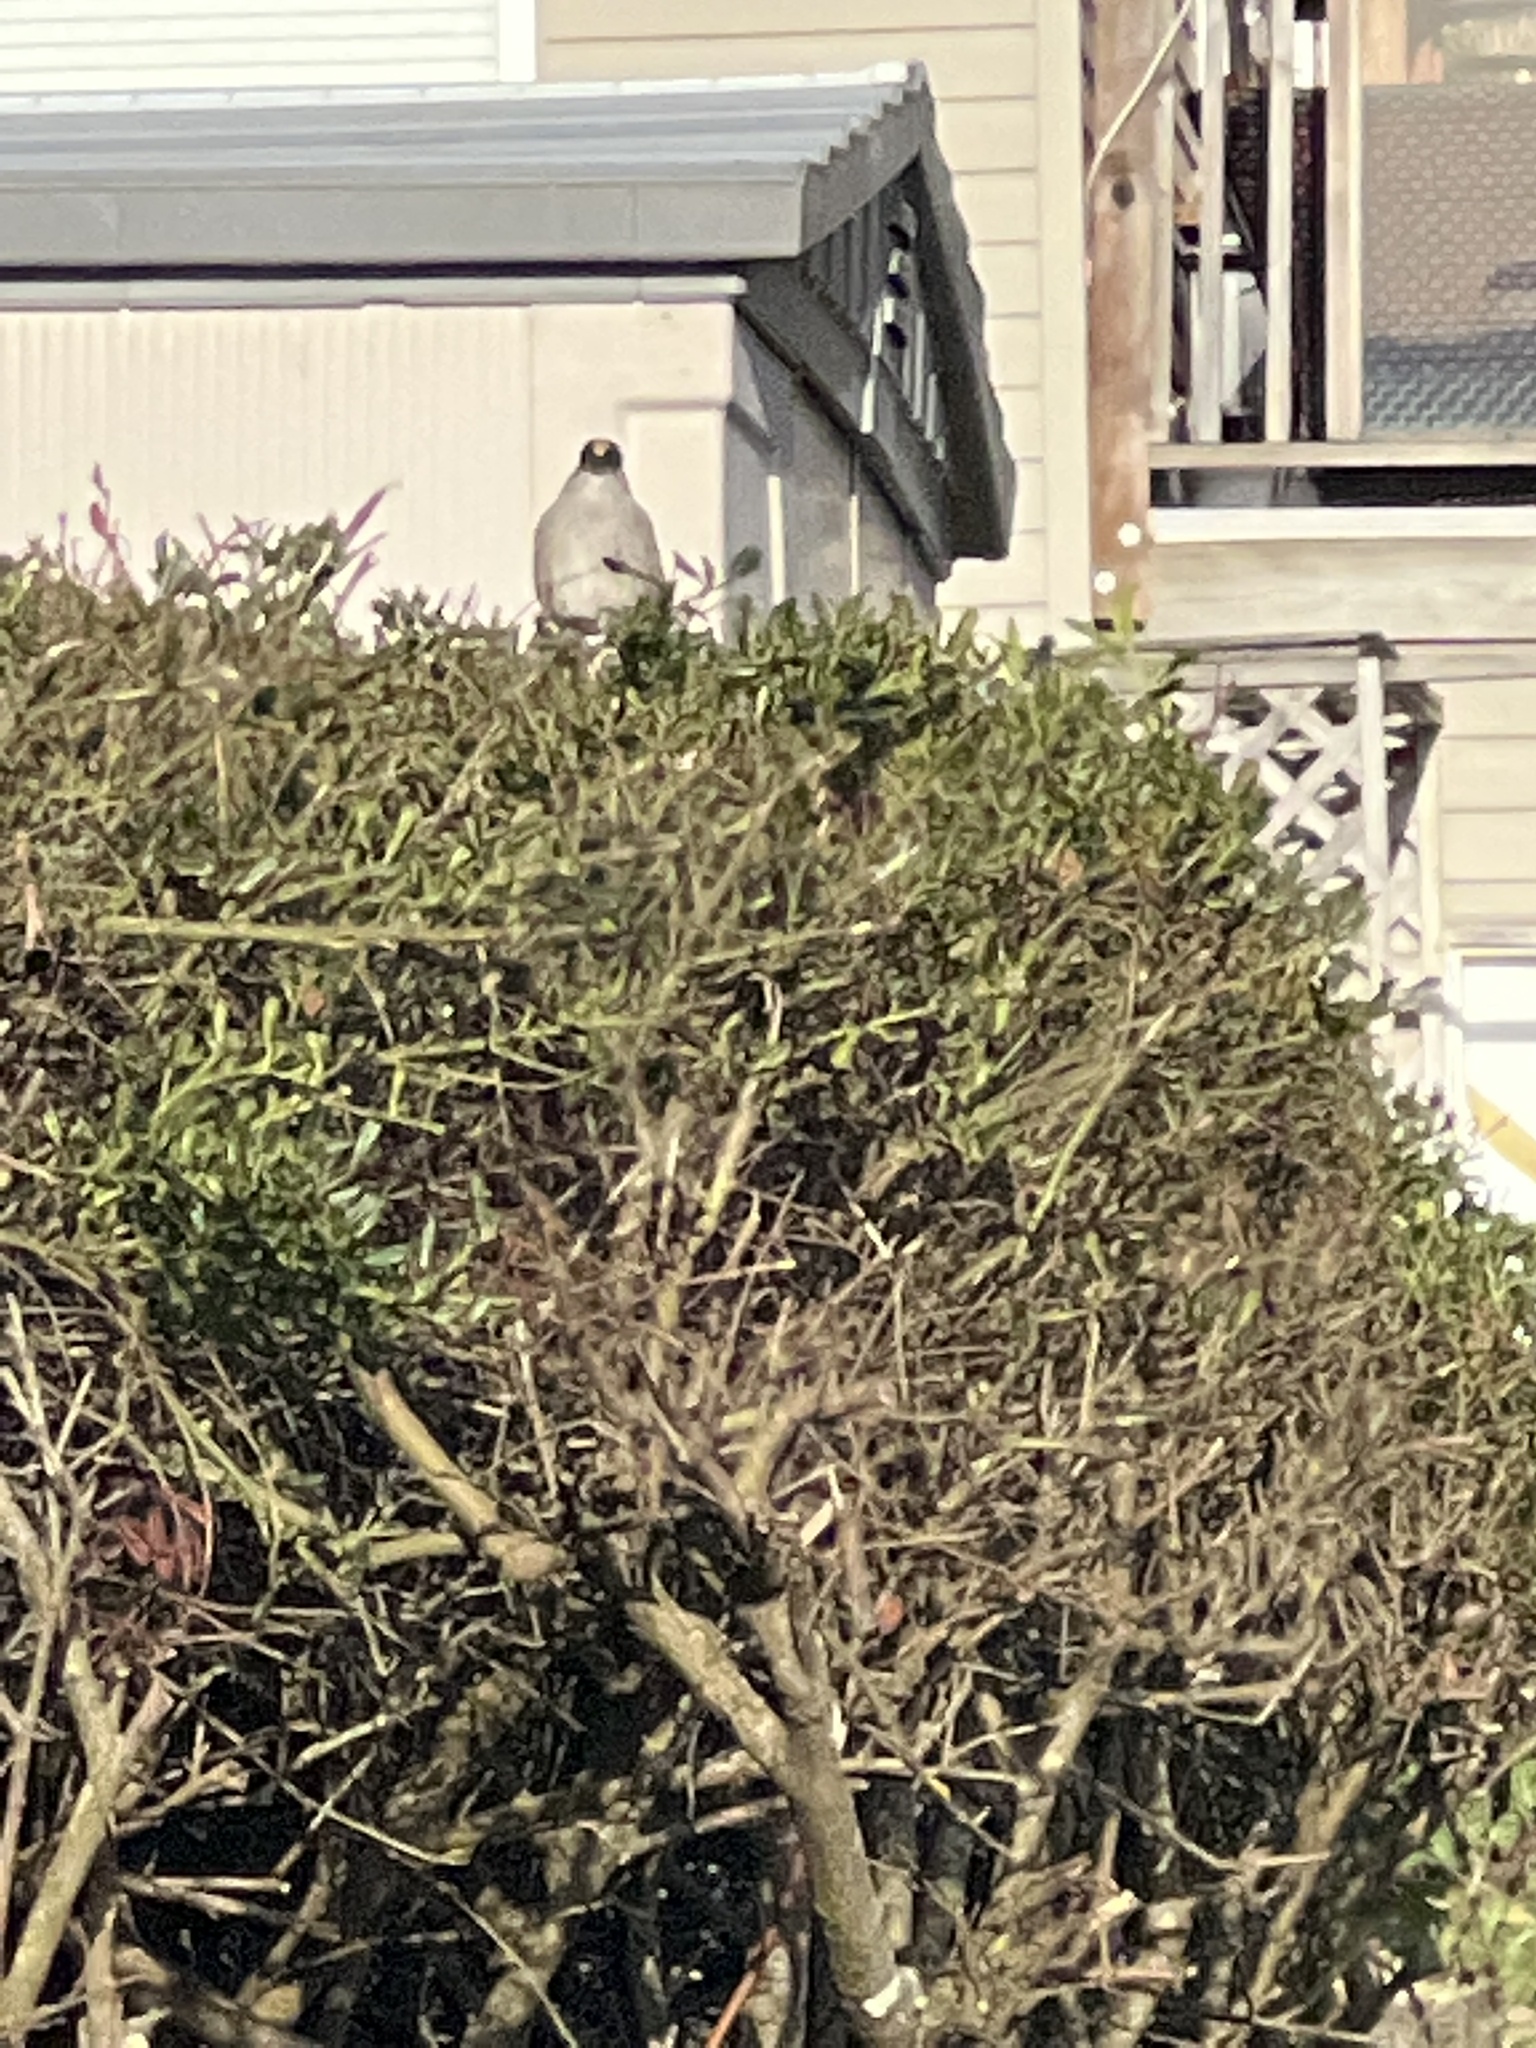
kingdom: Animalia
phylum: Chordata
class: Aves
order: Passeriformes
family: Passerellidae
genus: Zonotrichia
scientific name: Zonotrichia atricapilla
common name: Golden-crowned sparrow
